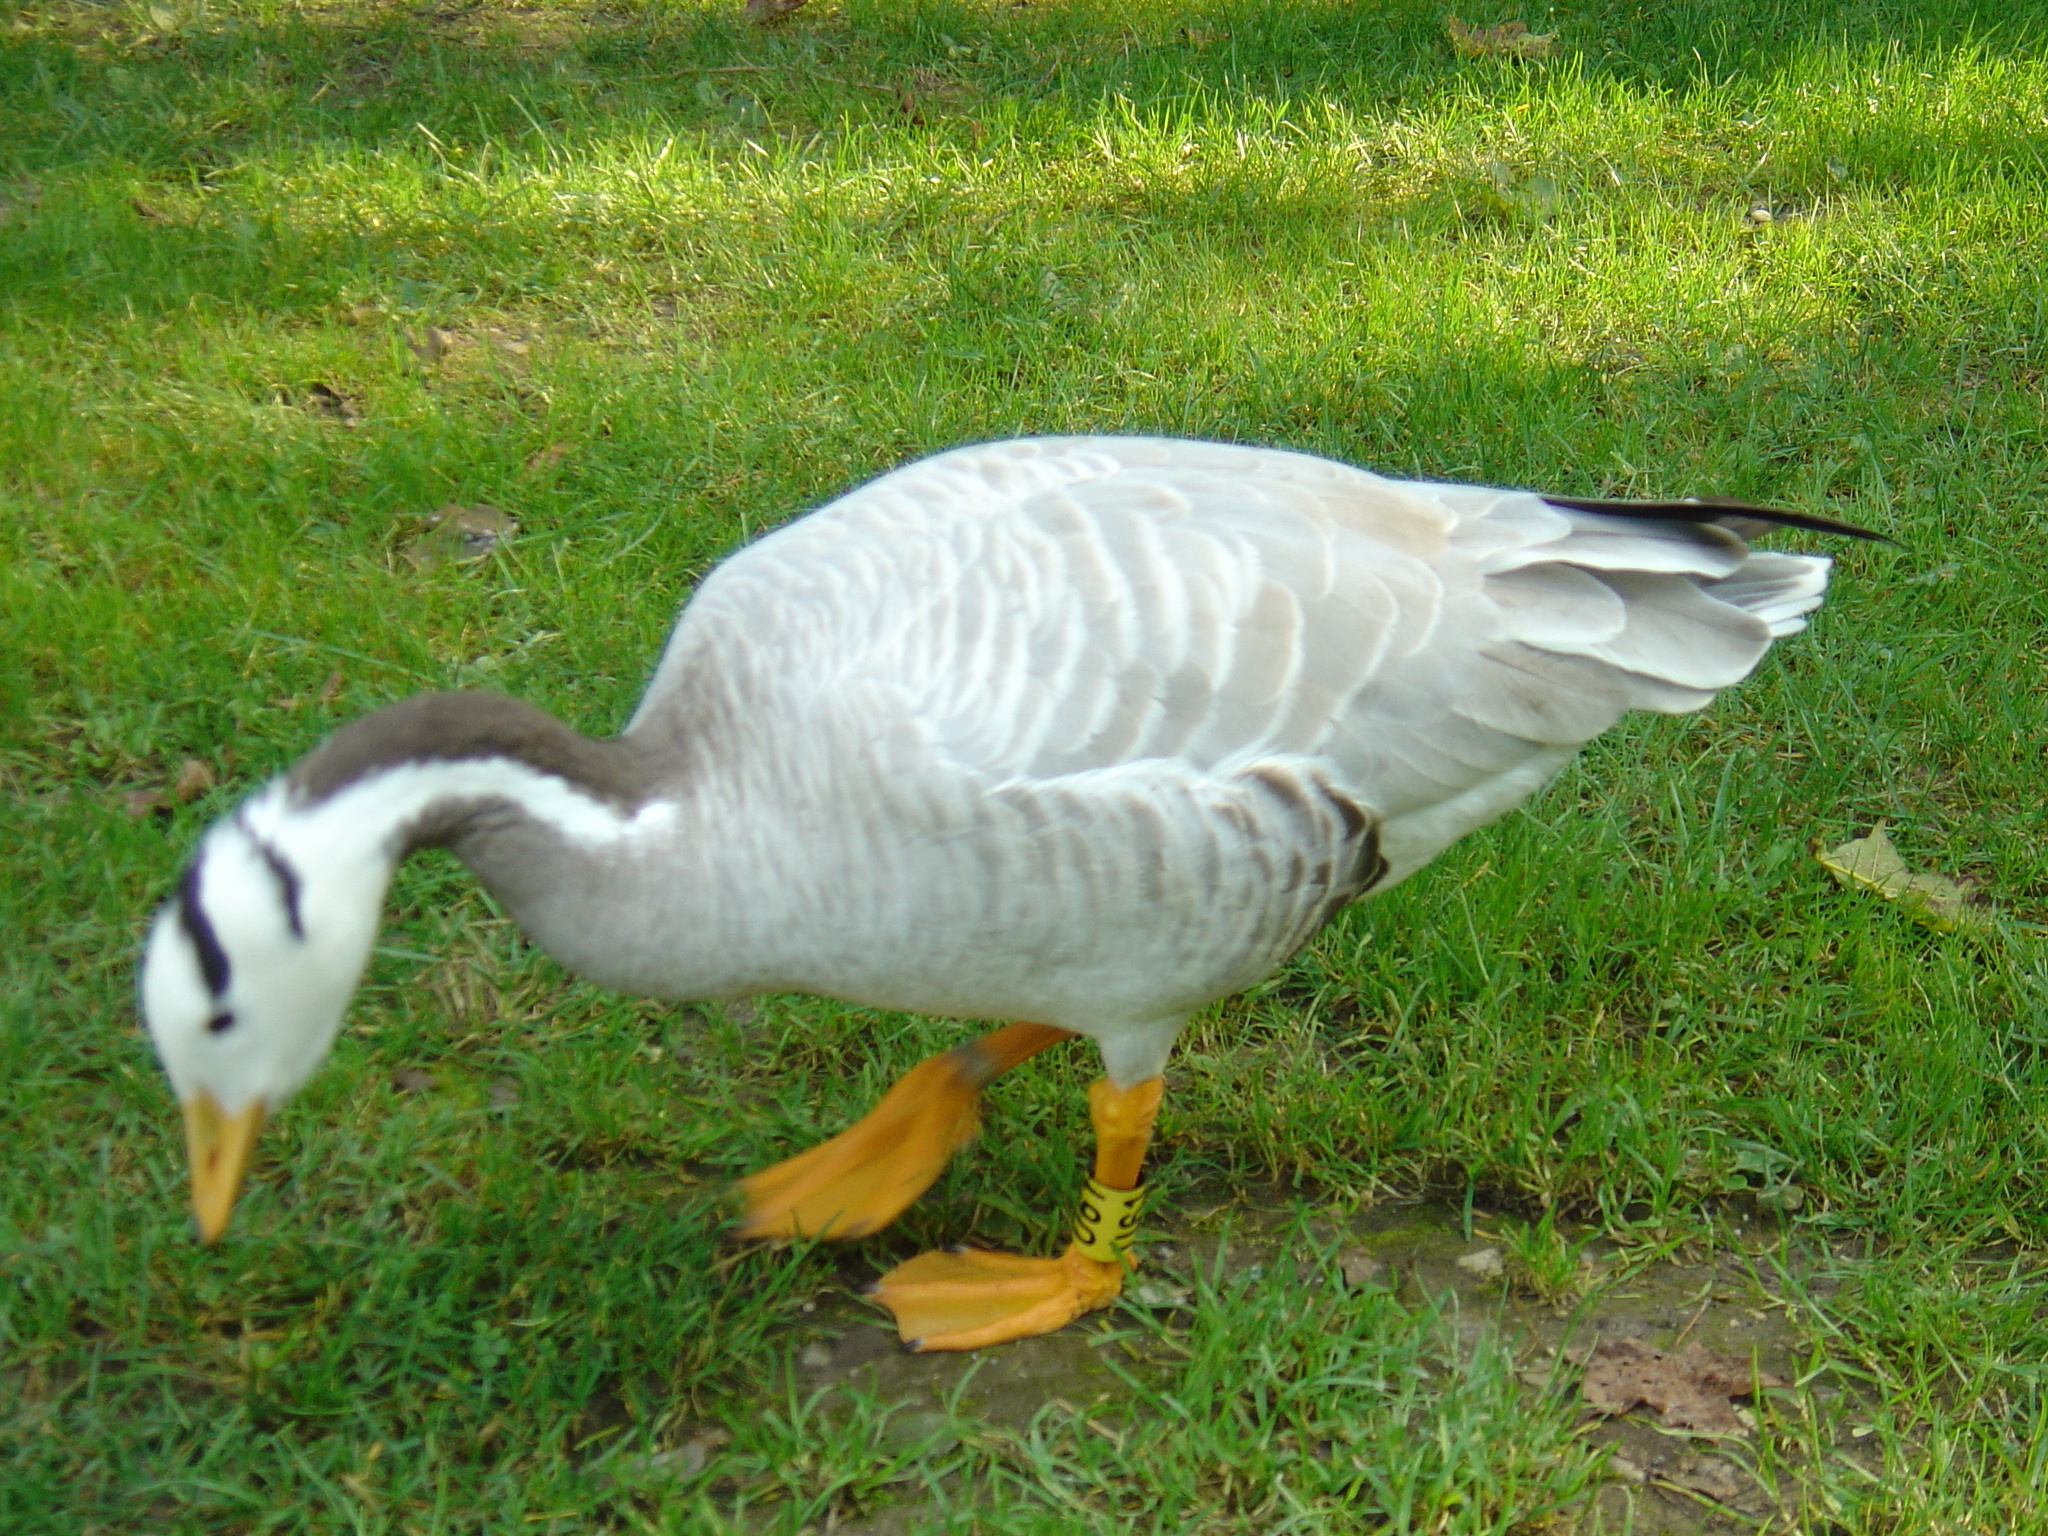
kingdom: Animalia
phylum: Chordata
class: Aves
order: Anseriformes
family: Anatidae
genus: Anser
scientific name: Anser indicus
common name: Bar-headed goose
